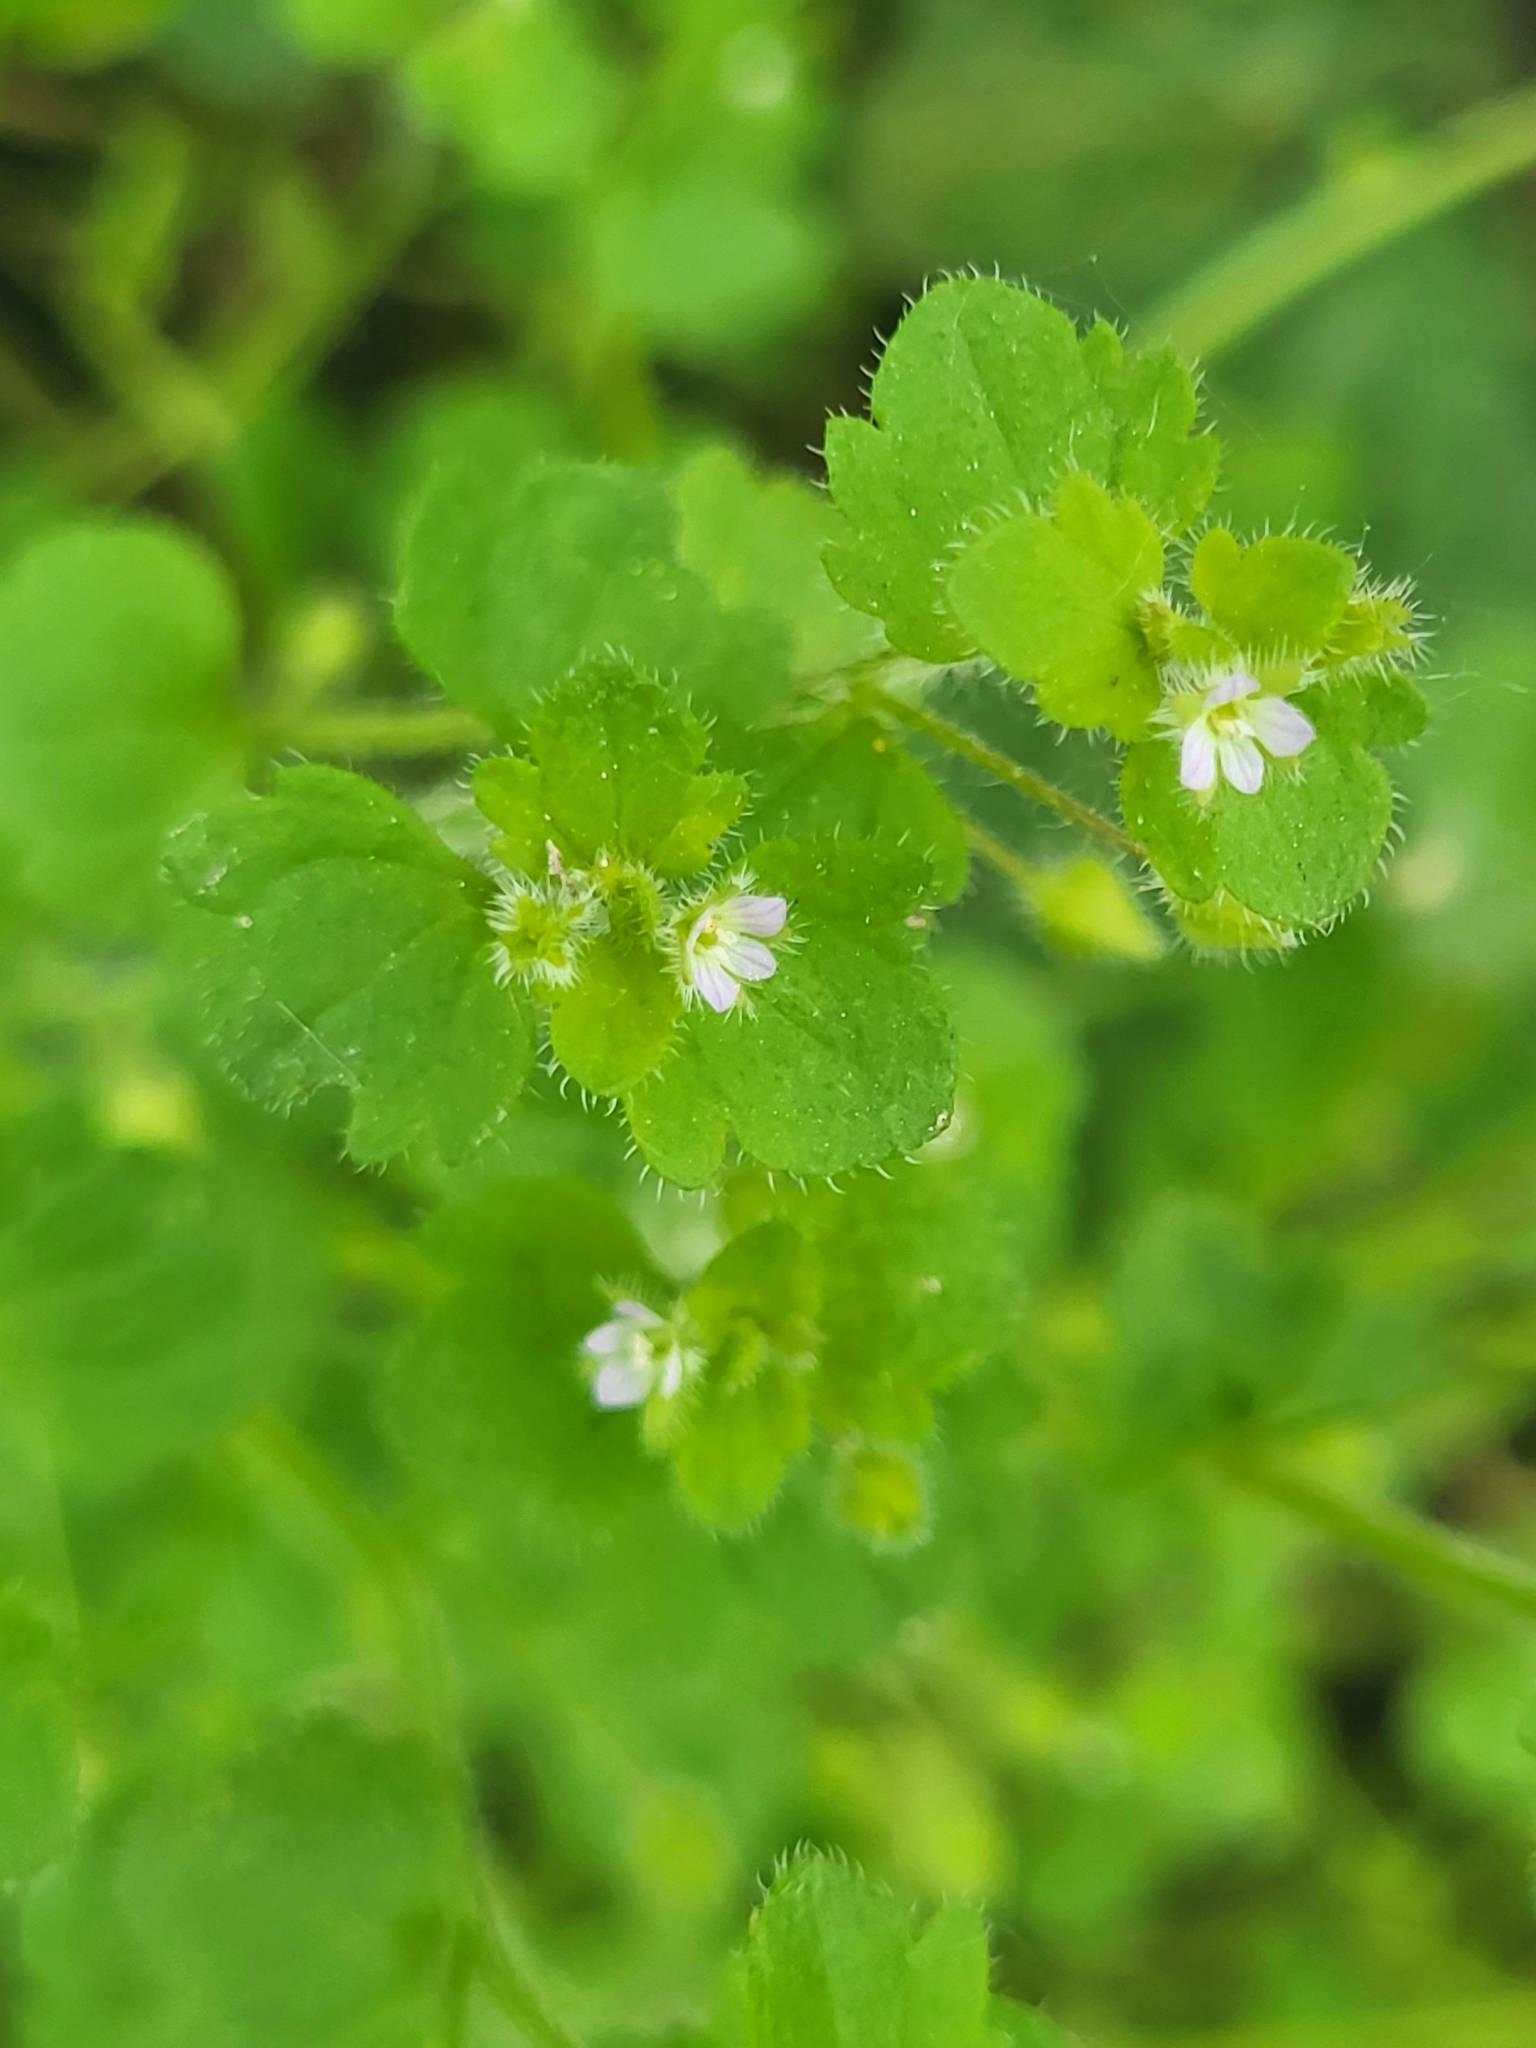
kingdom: Plantae
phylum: Tracheophyta
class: Magnoliopsida
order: Lamiales
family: Plantaginaceae
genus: Veronica
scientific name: Veronica sublobata
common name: False ivy-leaved speedwell
